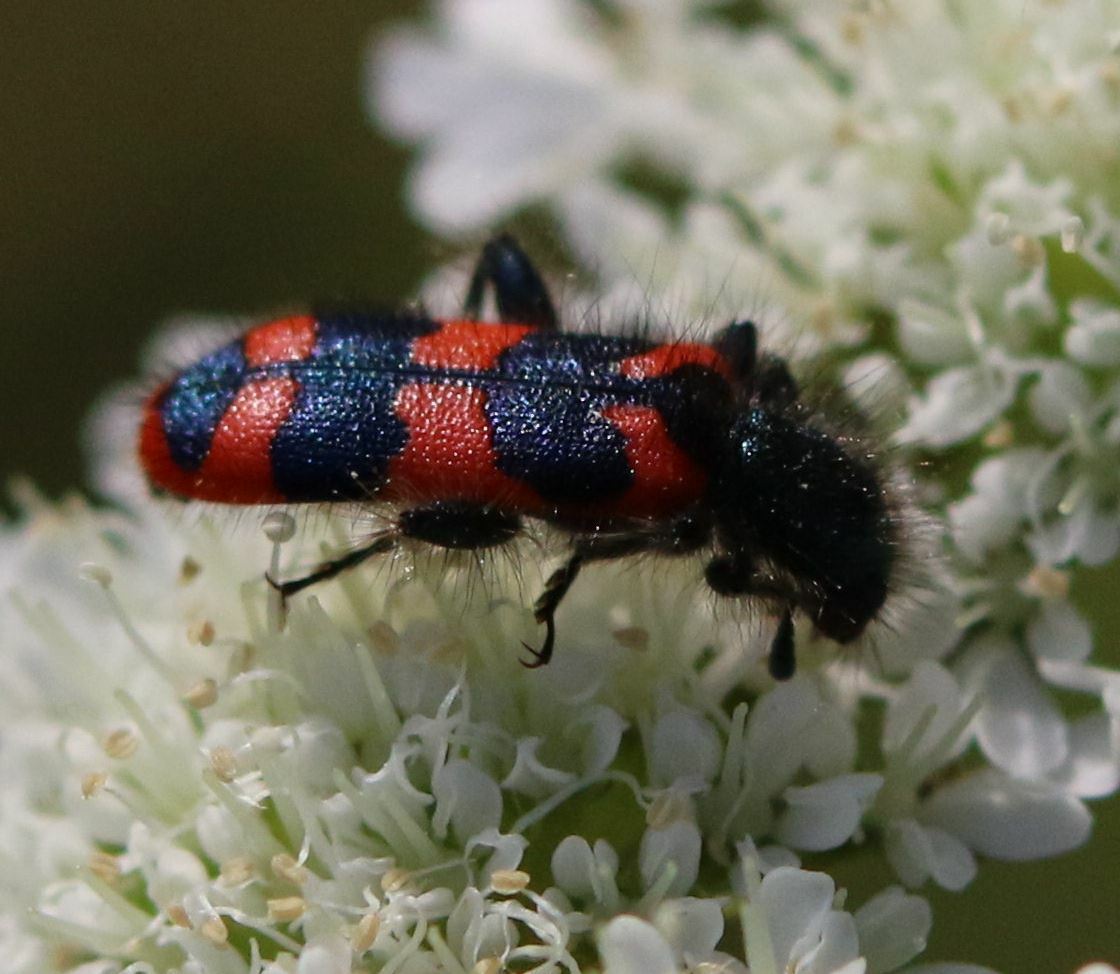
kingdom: Animalia
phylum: Arthropoda
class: Insecta
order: Coleoptera
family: Cleridae
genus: Trichodes
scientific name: Trichodes alvearius
